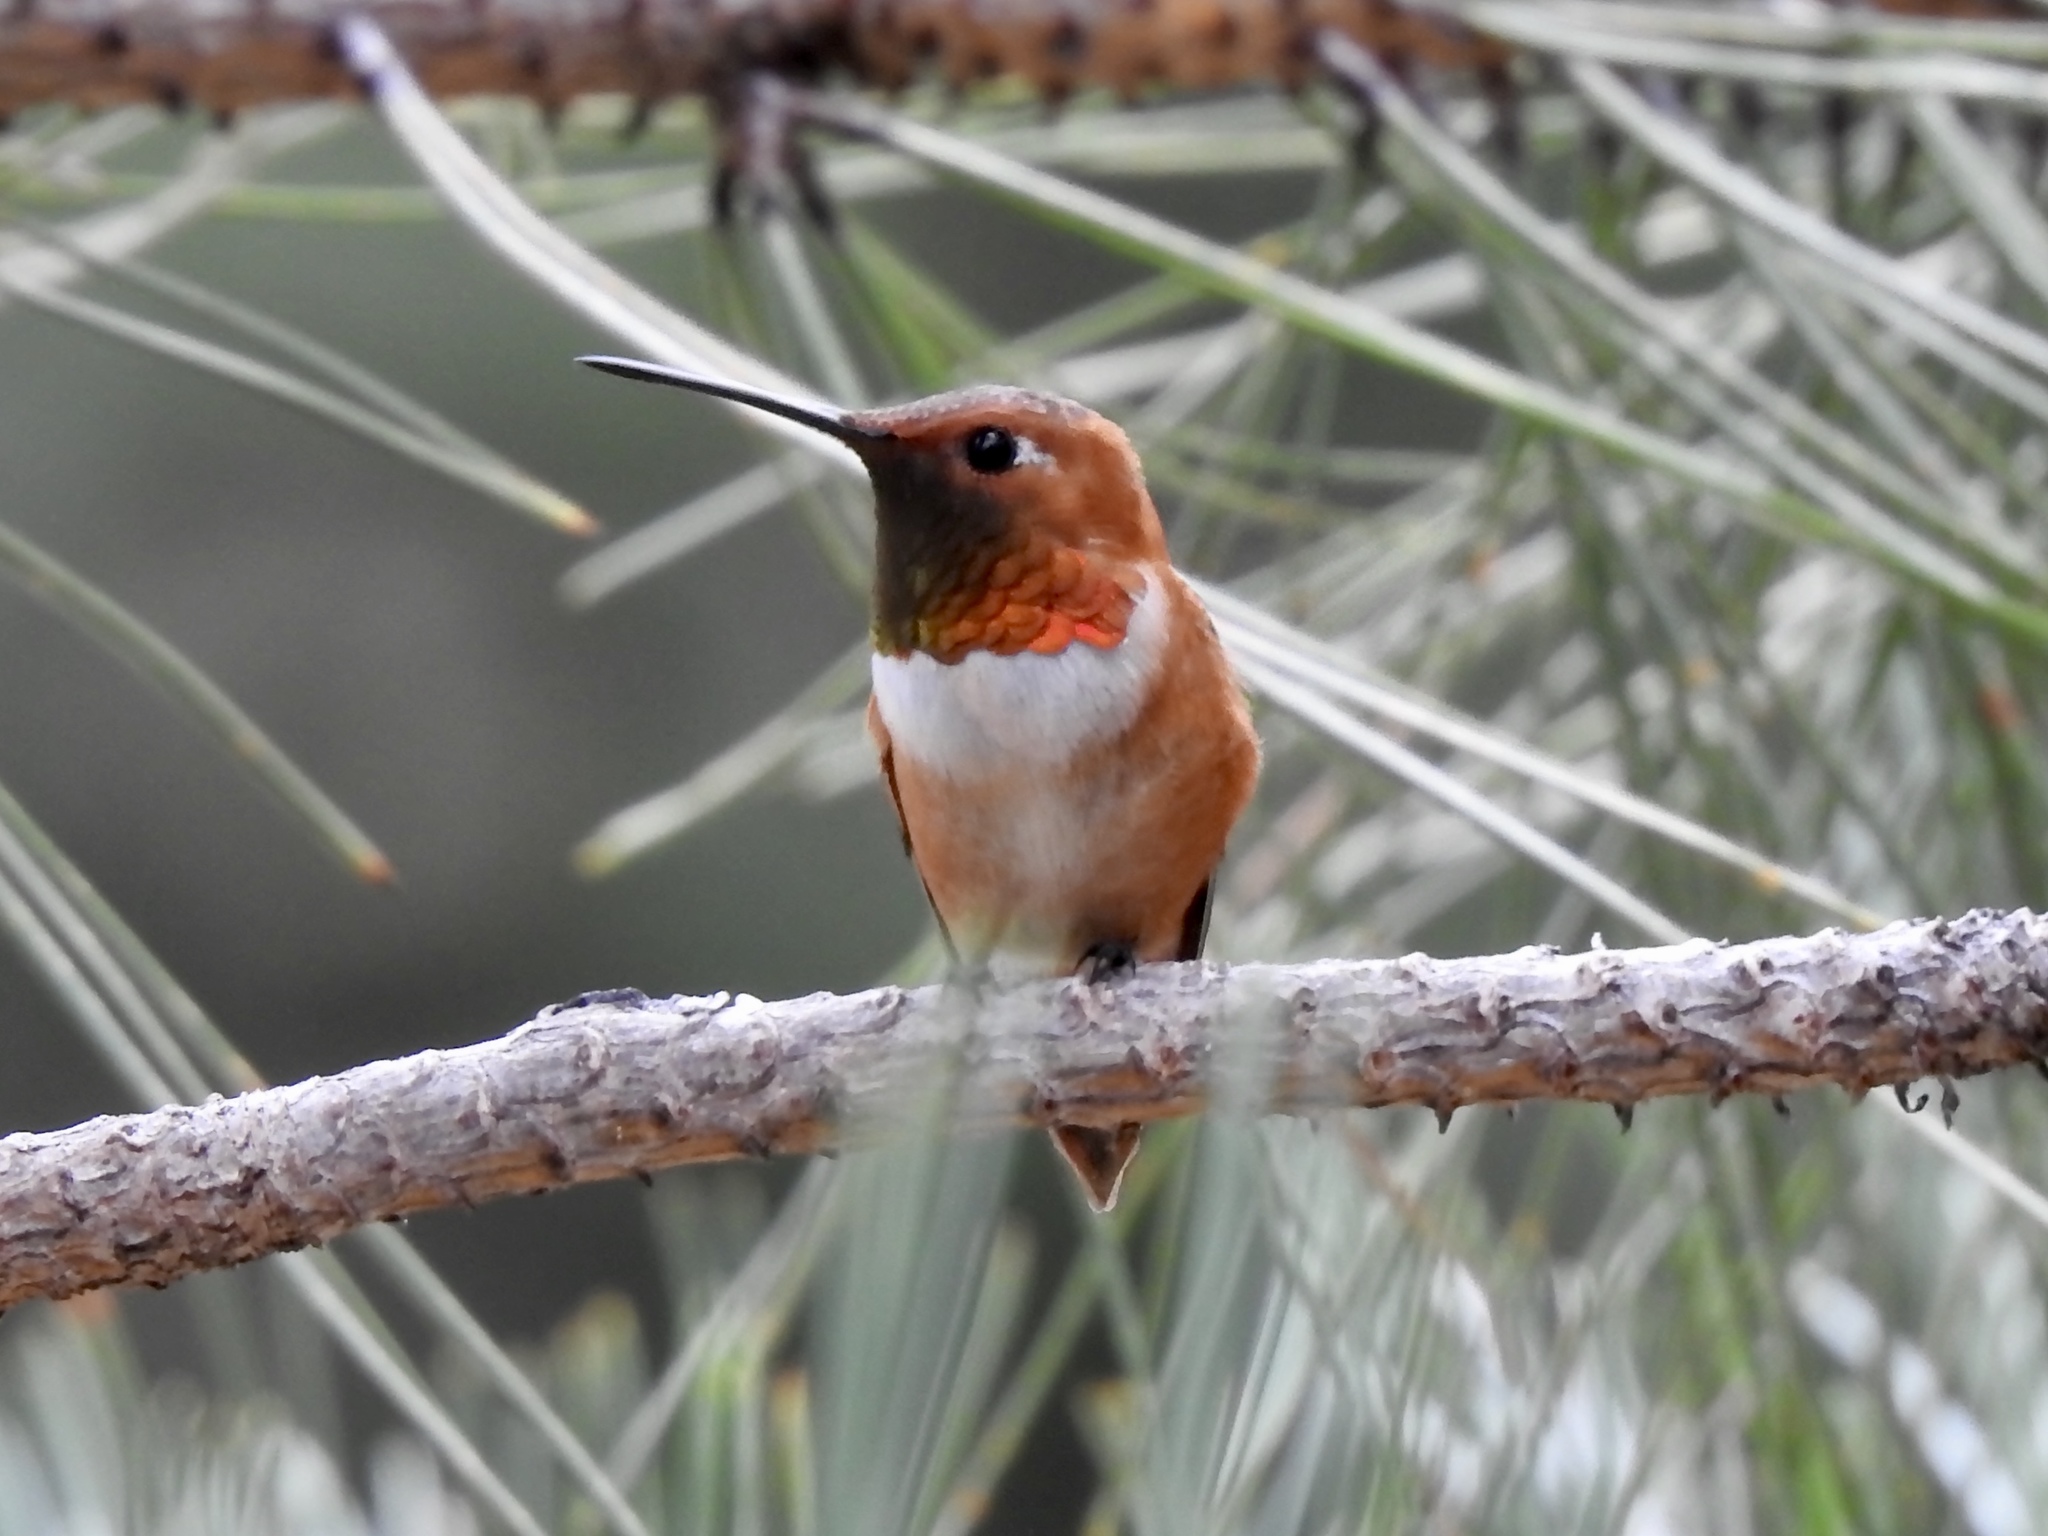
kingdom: Animalia
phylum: Chordata
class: Aves
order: Apodiformes
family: Trochilidae
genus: Selasphorus
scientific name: Selasphorus rufus
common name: Rufous hummingbird
